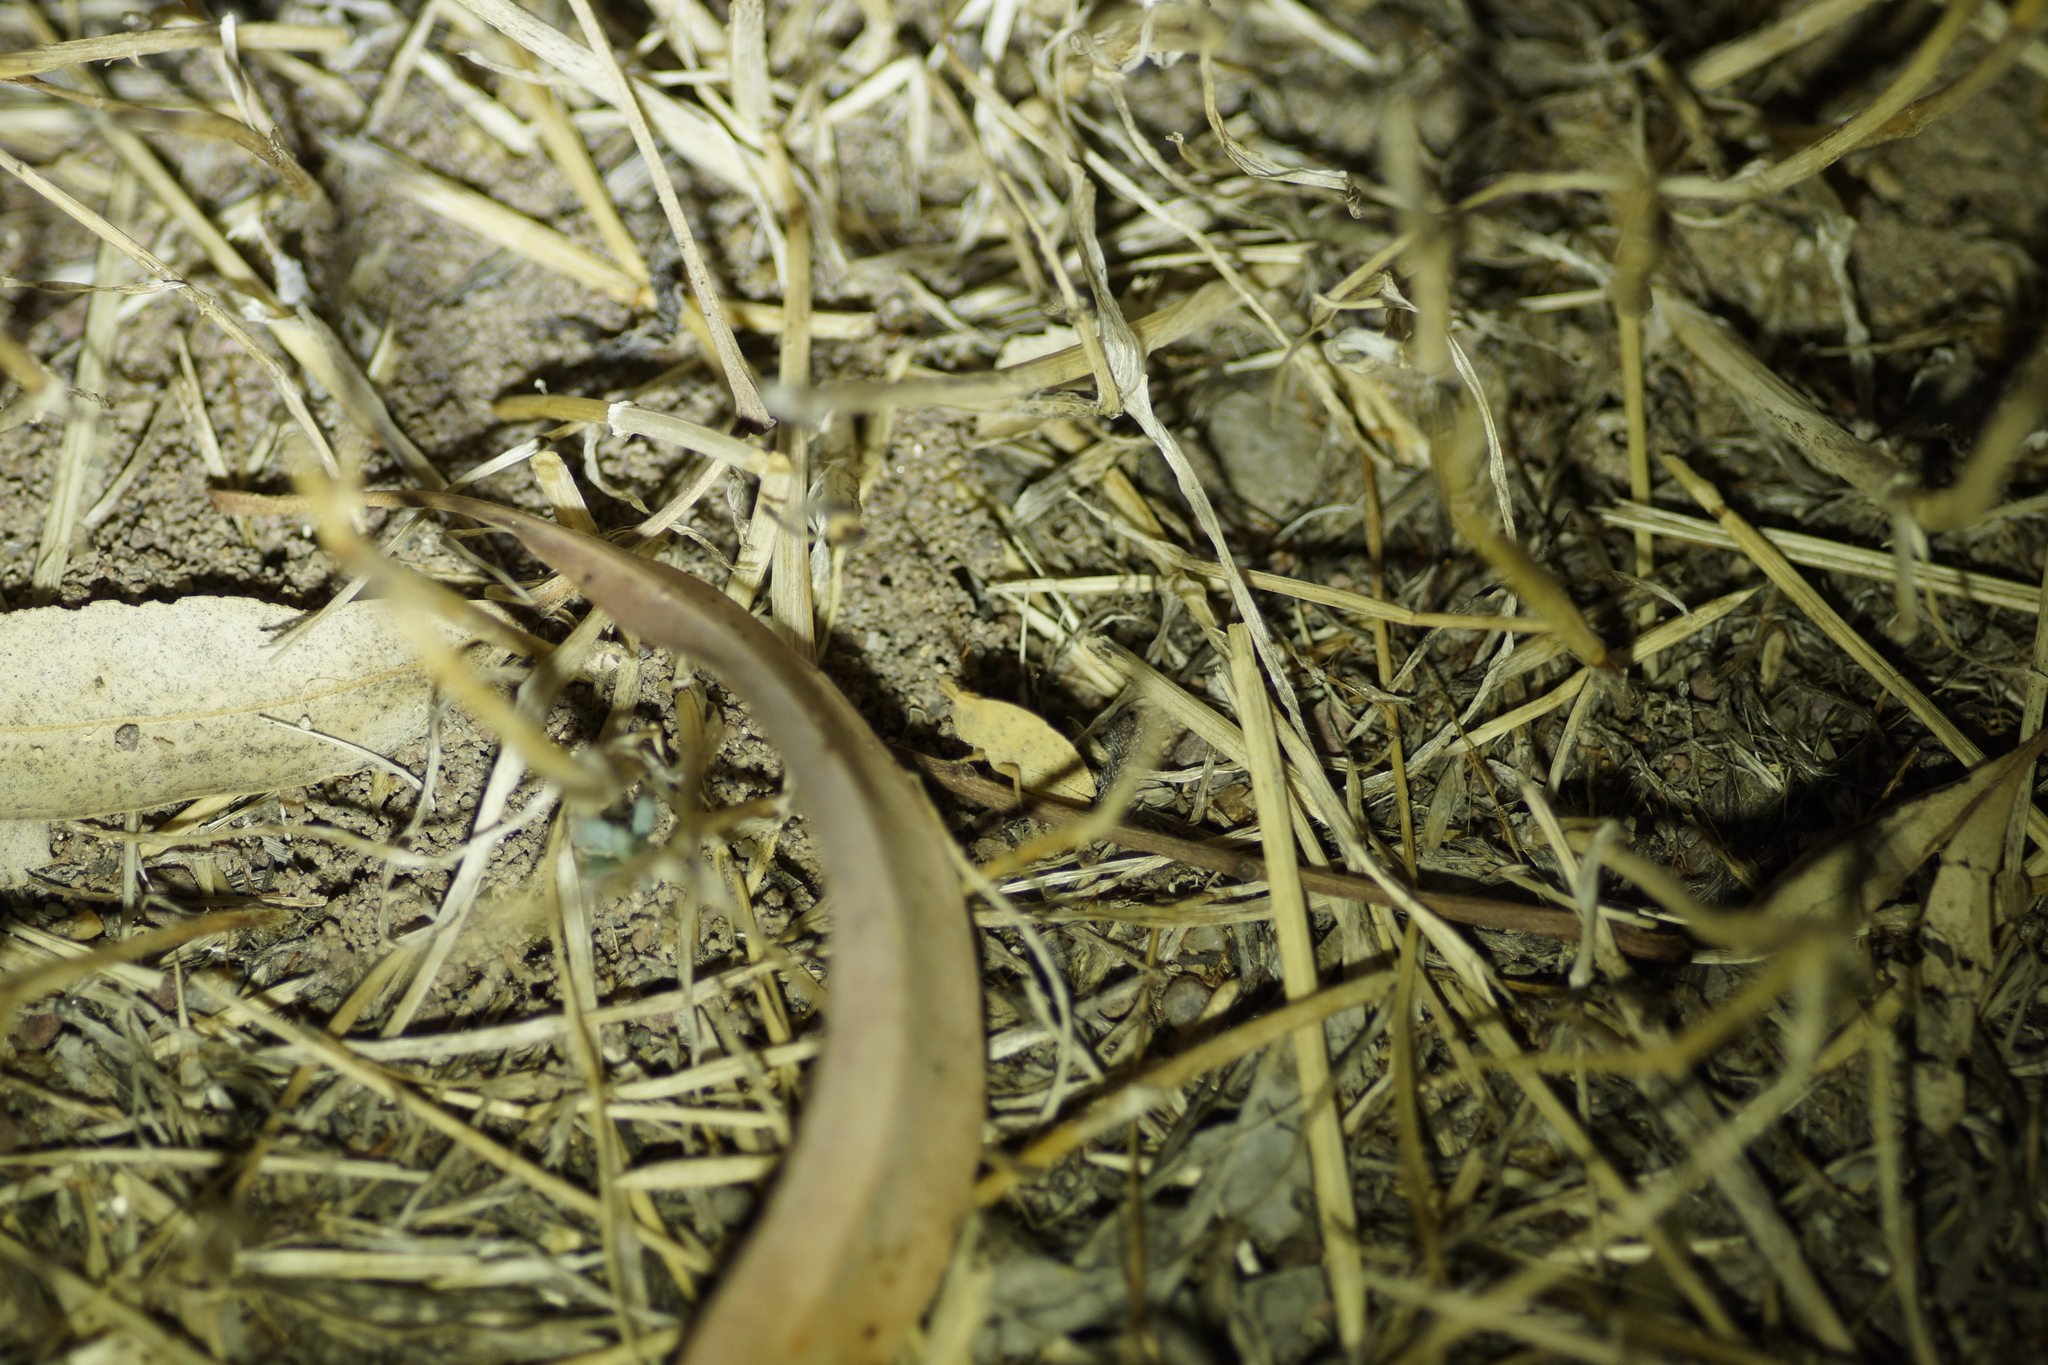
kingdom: Animalia
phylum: Arthropoda
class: Insecta
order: Orthoptera
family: Acrididae
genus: Goniaea
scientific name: Goniaea australasiae
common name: Gumleaf grasshopper
